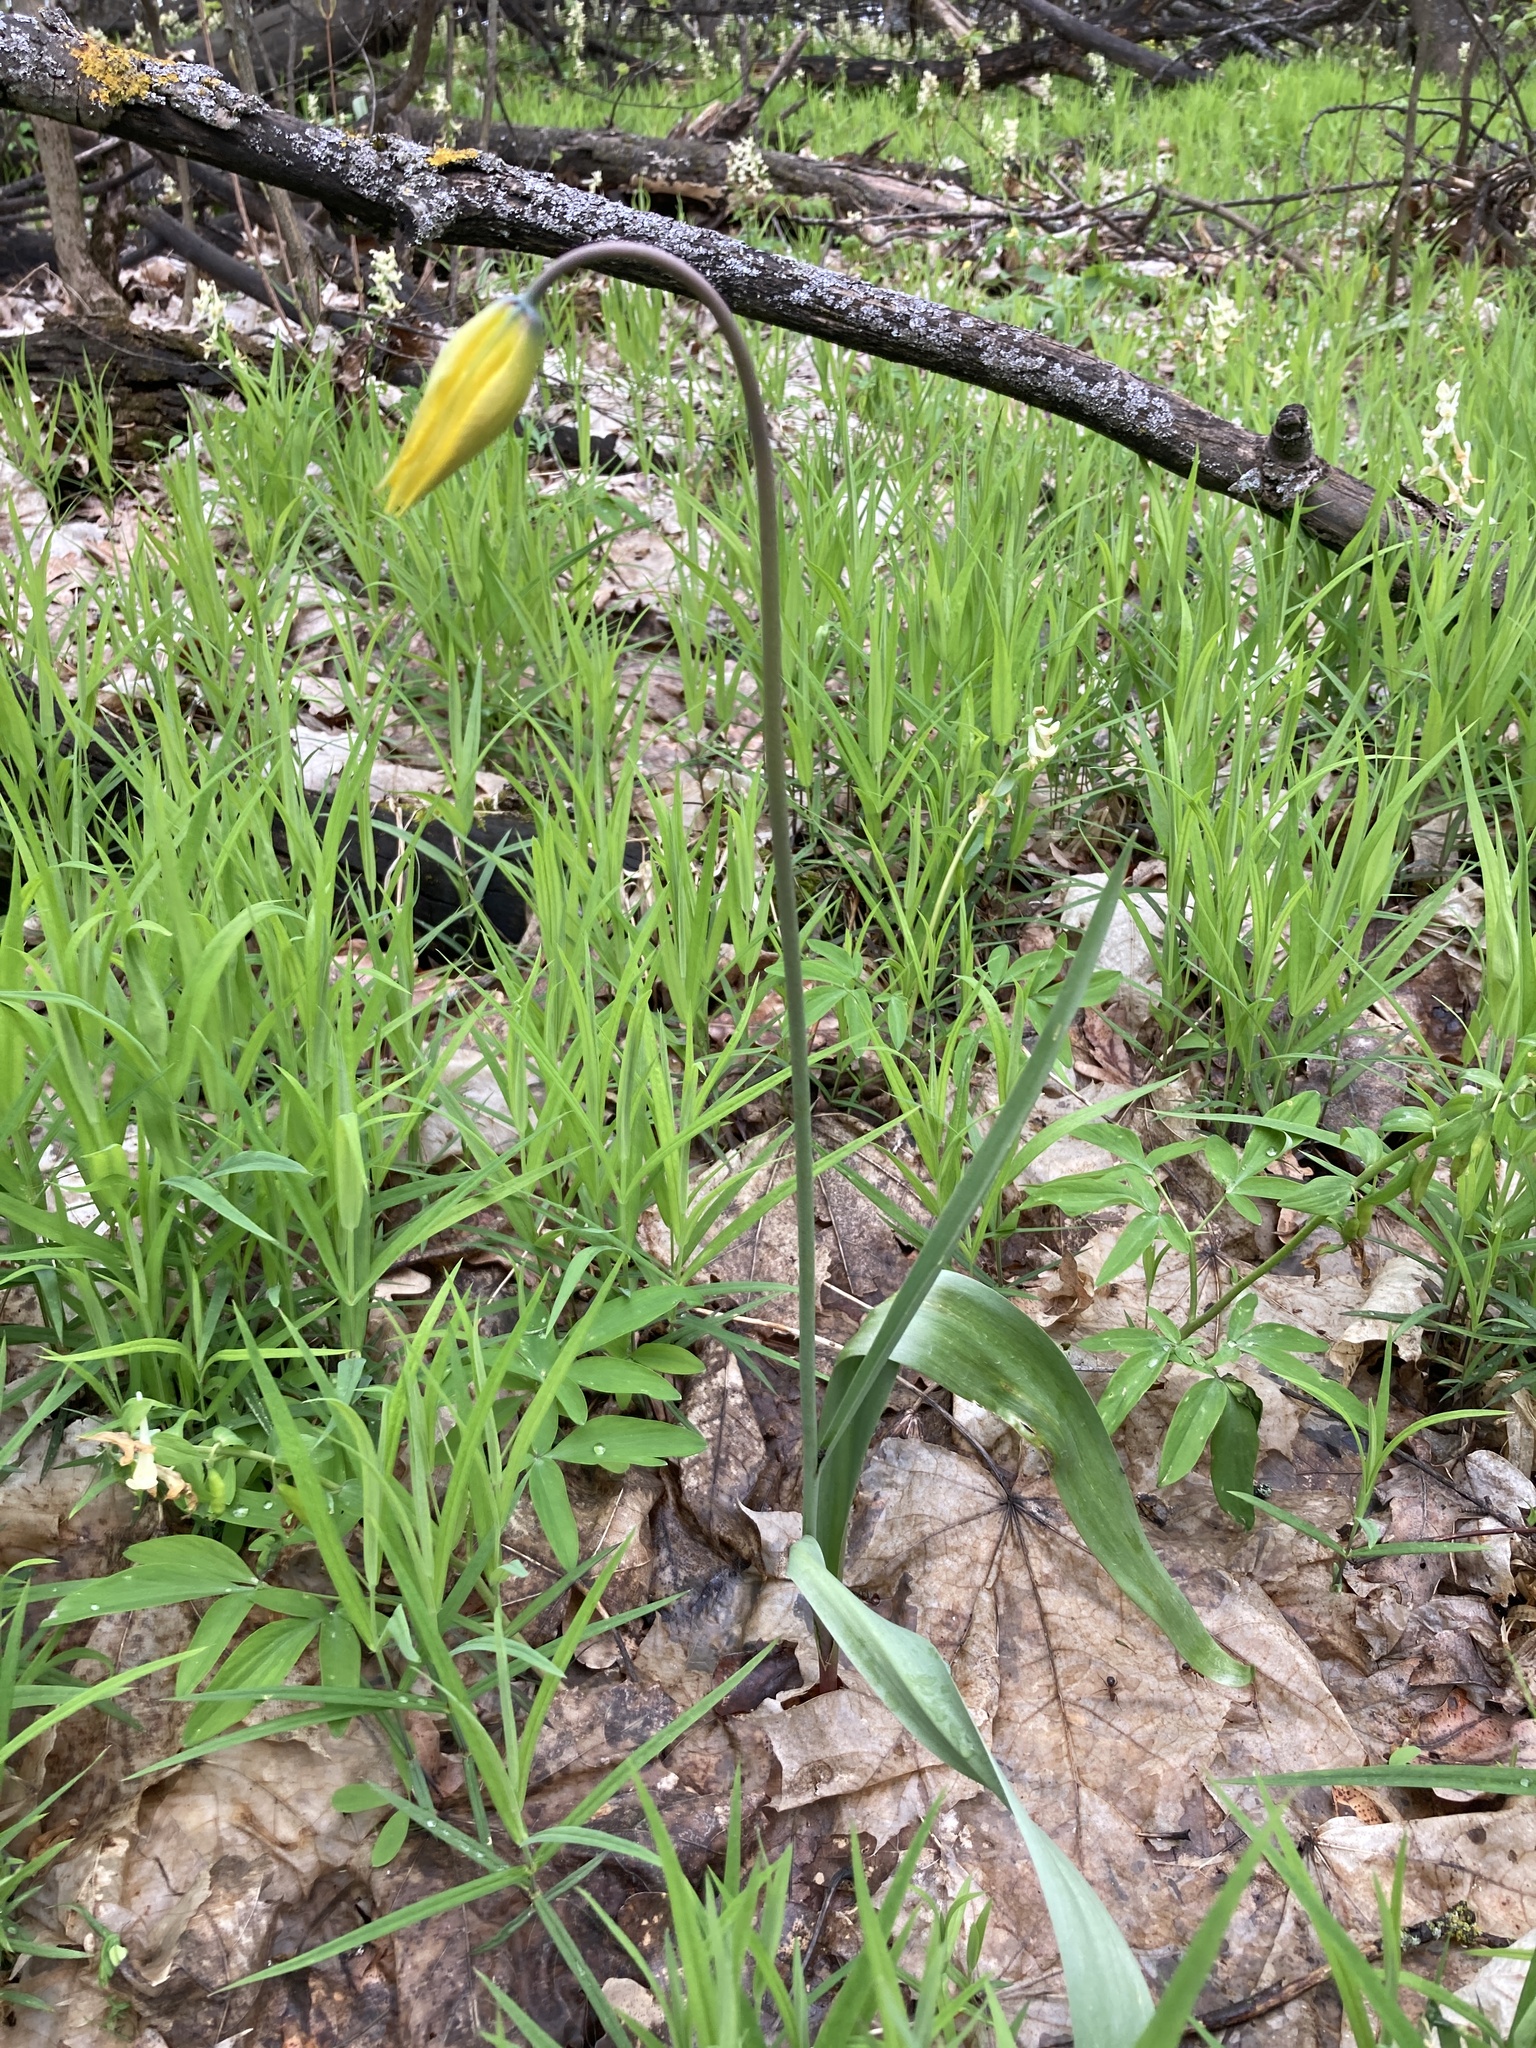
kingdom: Plantae
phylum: Tracheophyta
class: Liliopsida
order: Liliales
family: Liliaceae
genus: Tulipa
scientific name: Tulipa sylvestris
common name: Wild tulip
